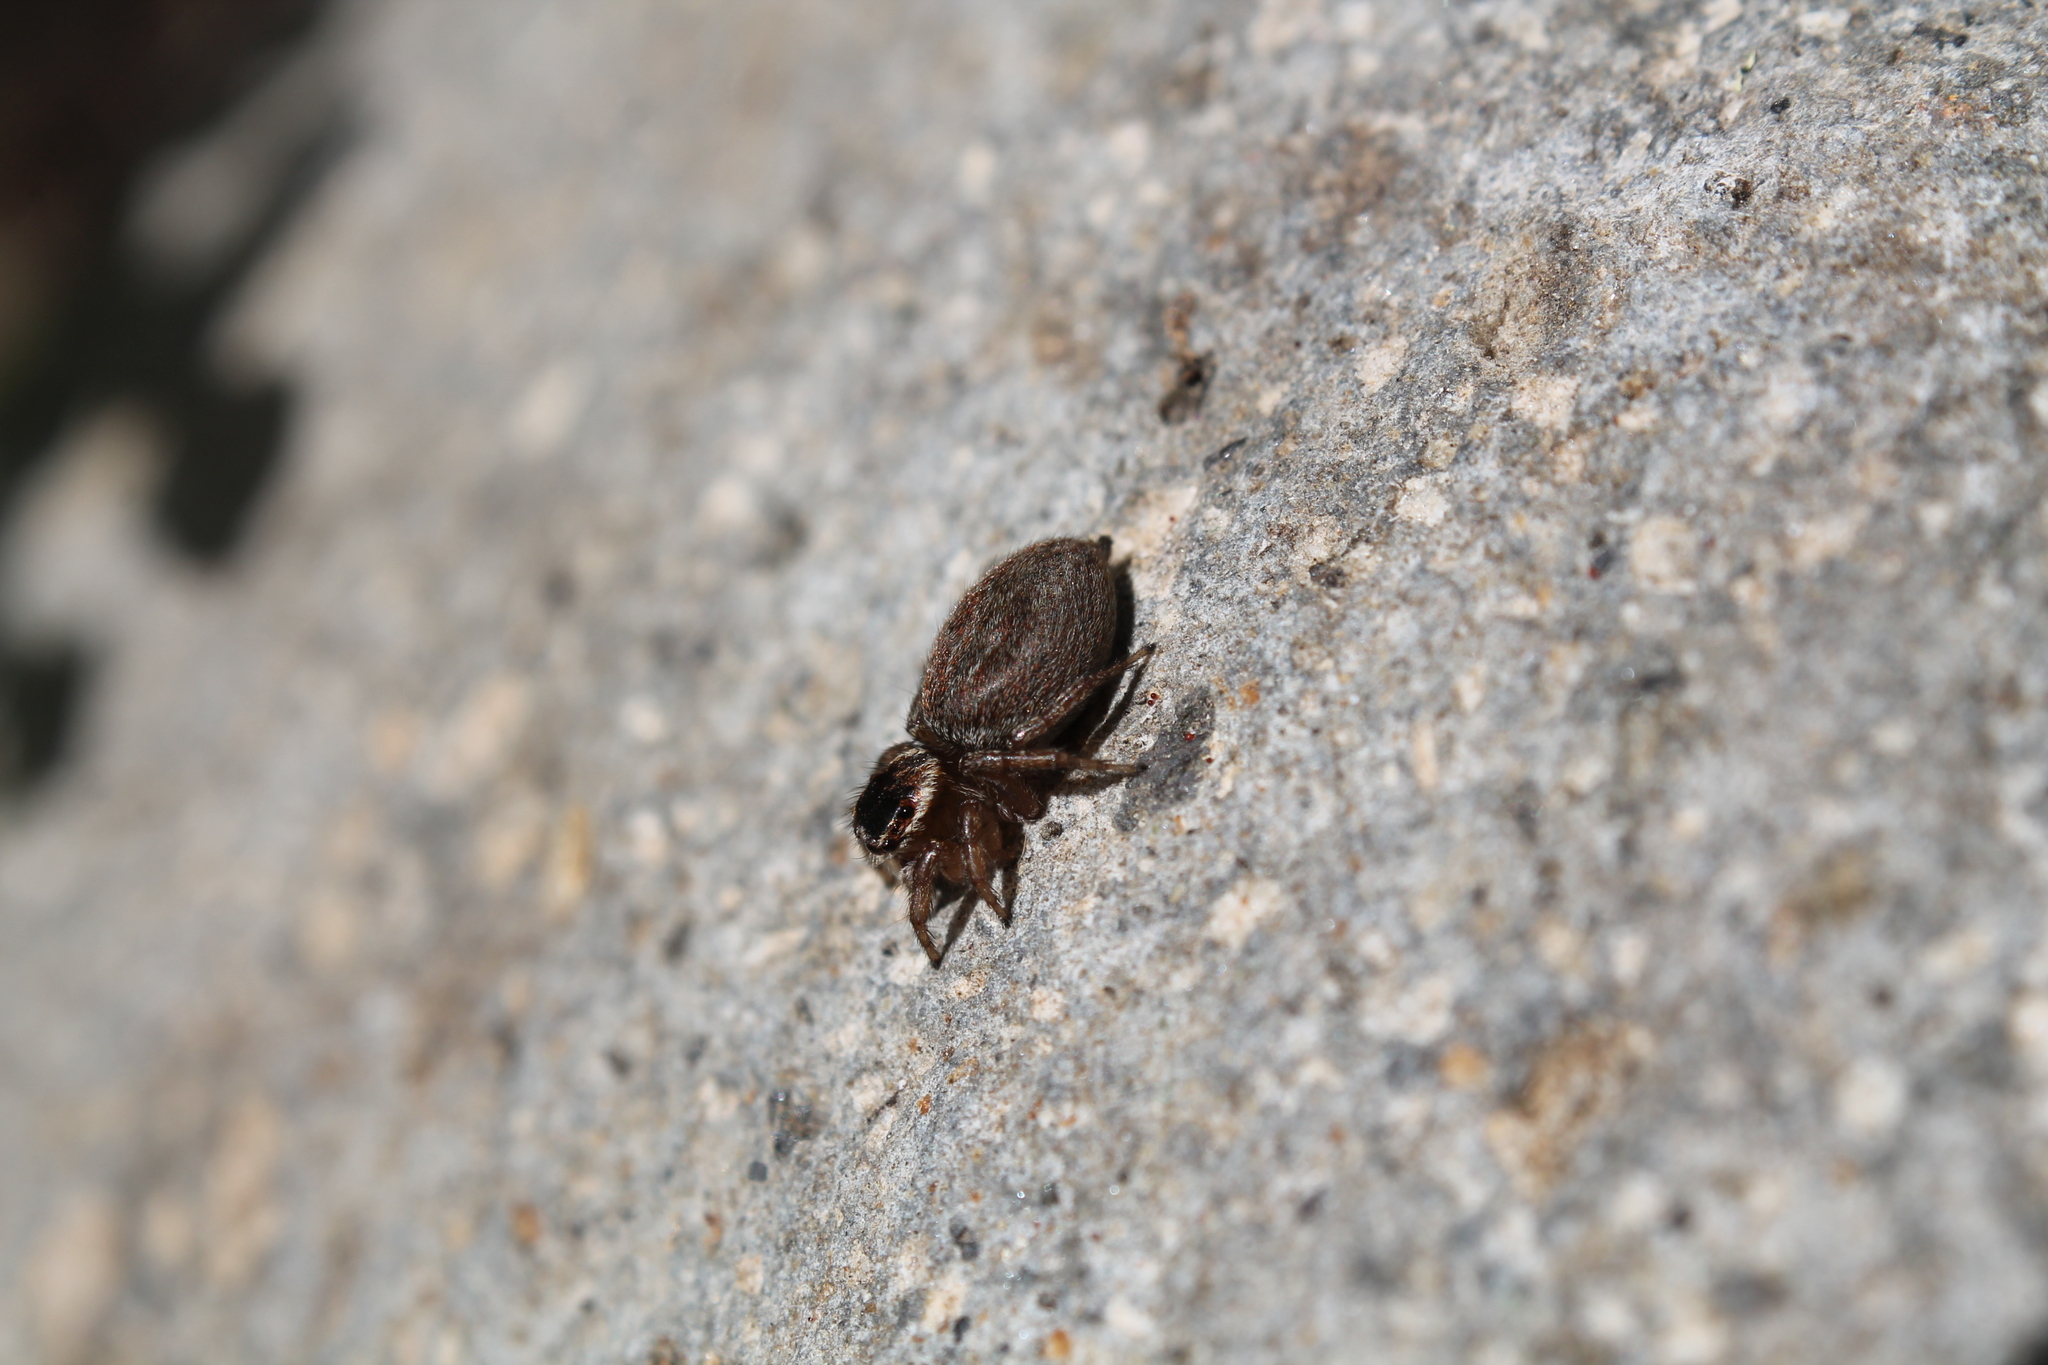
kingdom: Animalia
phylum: Arthropoda
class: Arachnida
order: Araneae
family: Salticidae
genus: Maratus
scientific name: Maratus griseus
